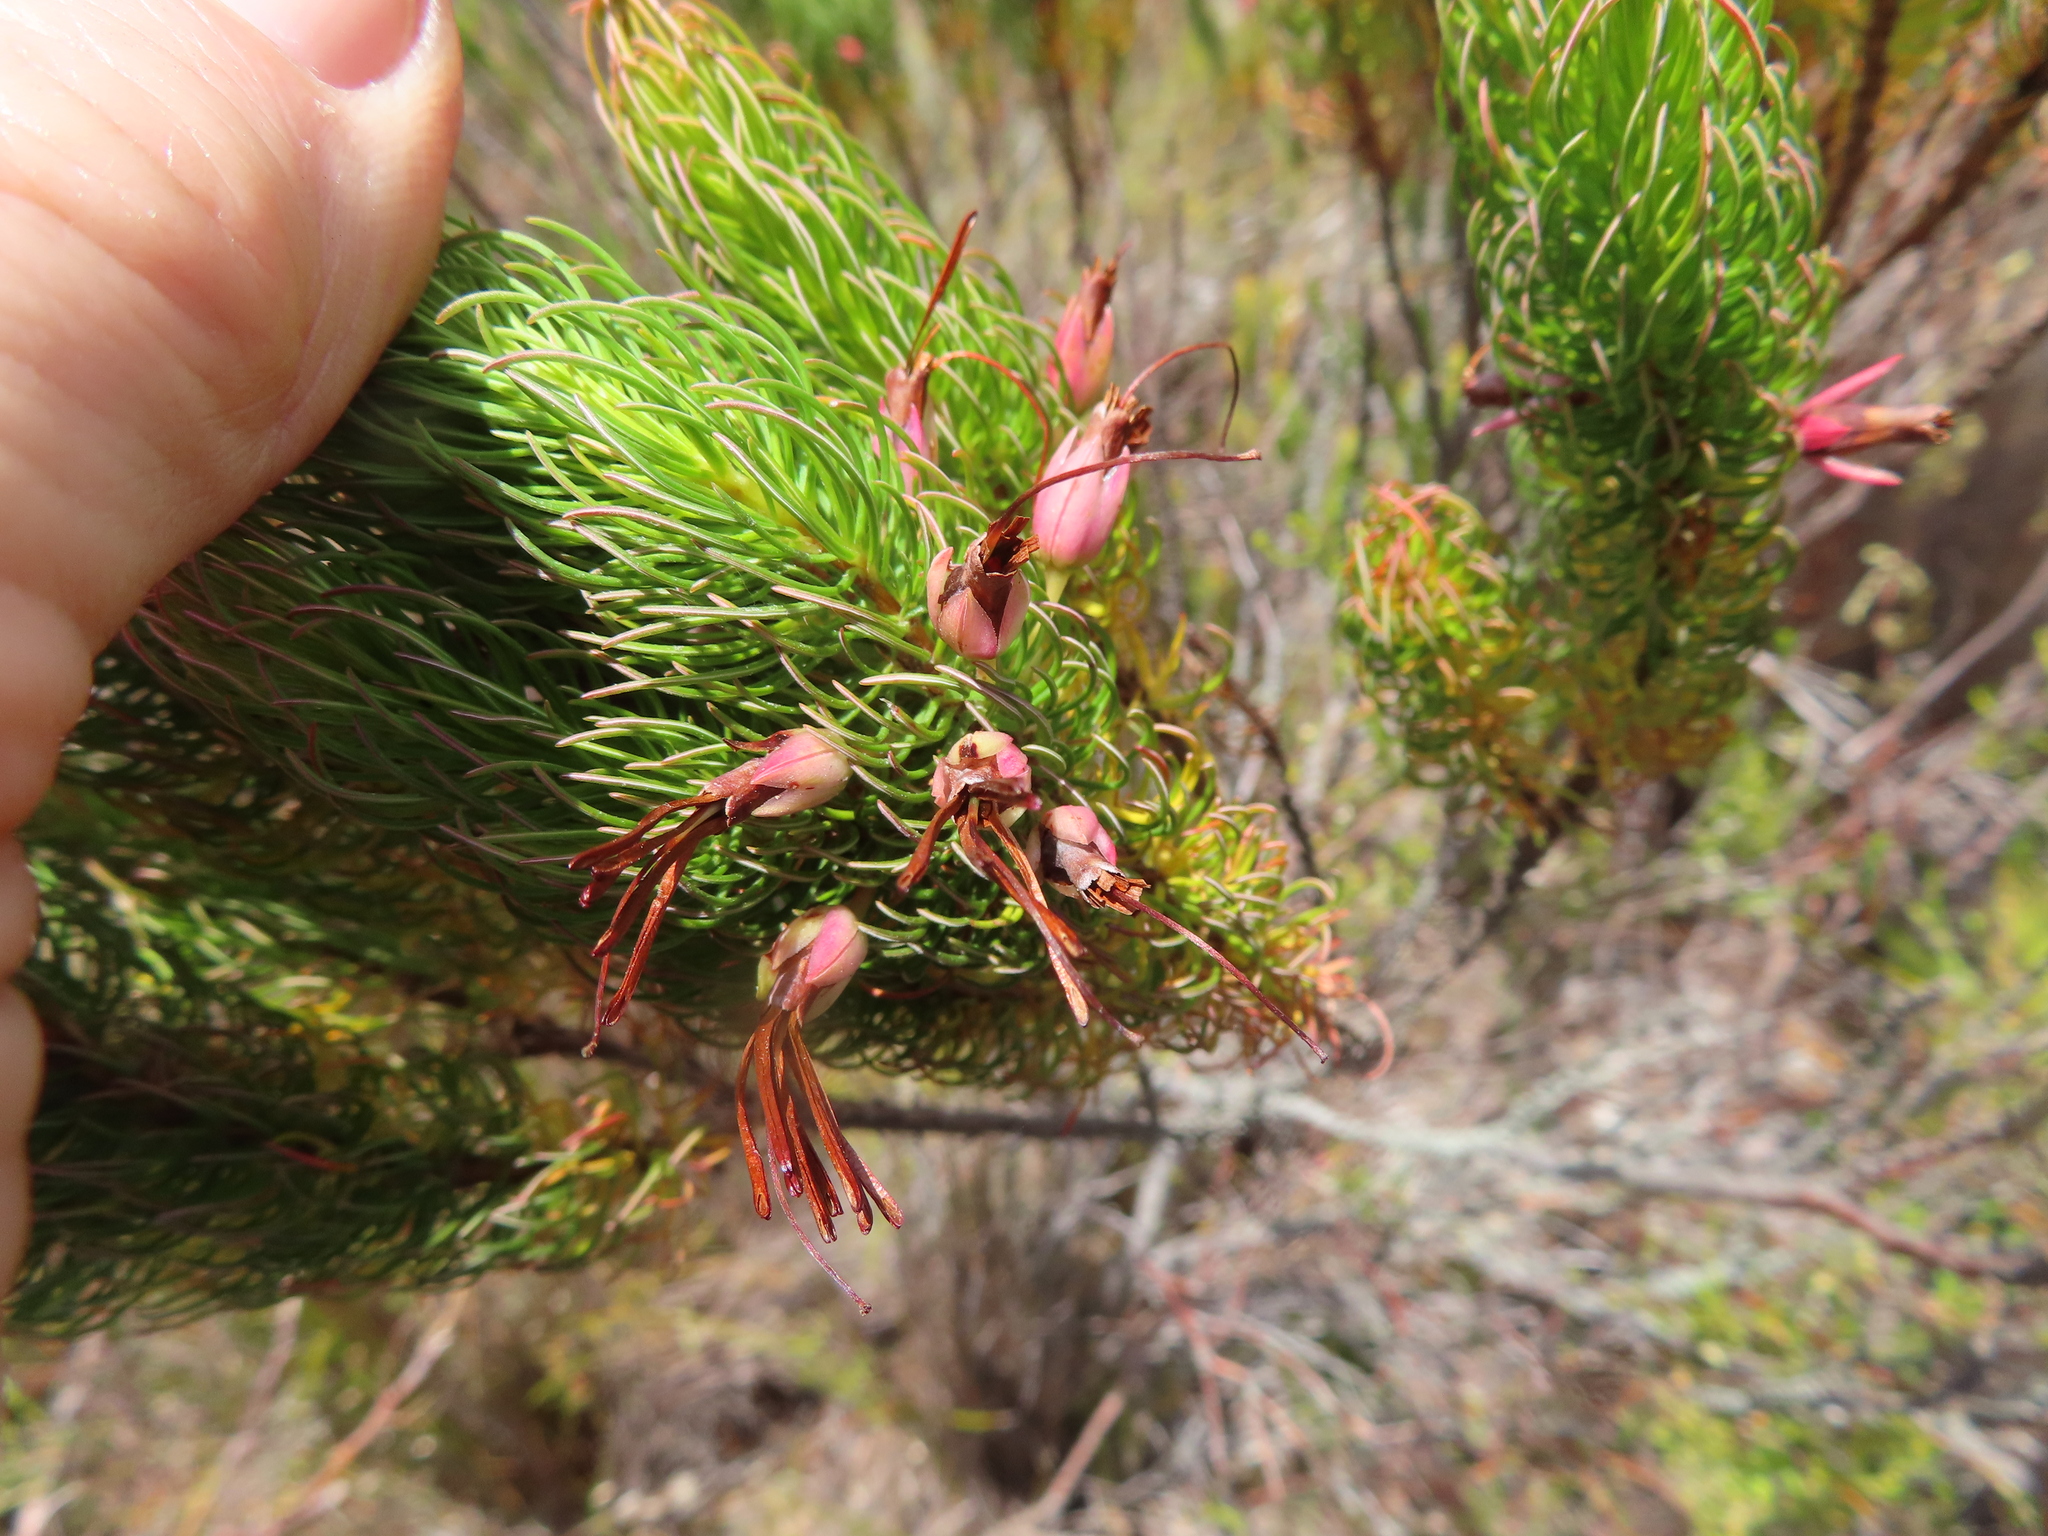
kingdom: Plantae
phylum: Tracheophyta
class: Magnoliopsida
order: Ericales
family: Ericaceae
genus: Erica
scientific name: Erica plukenetii
